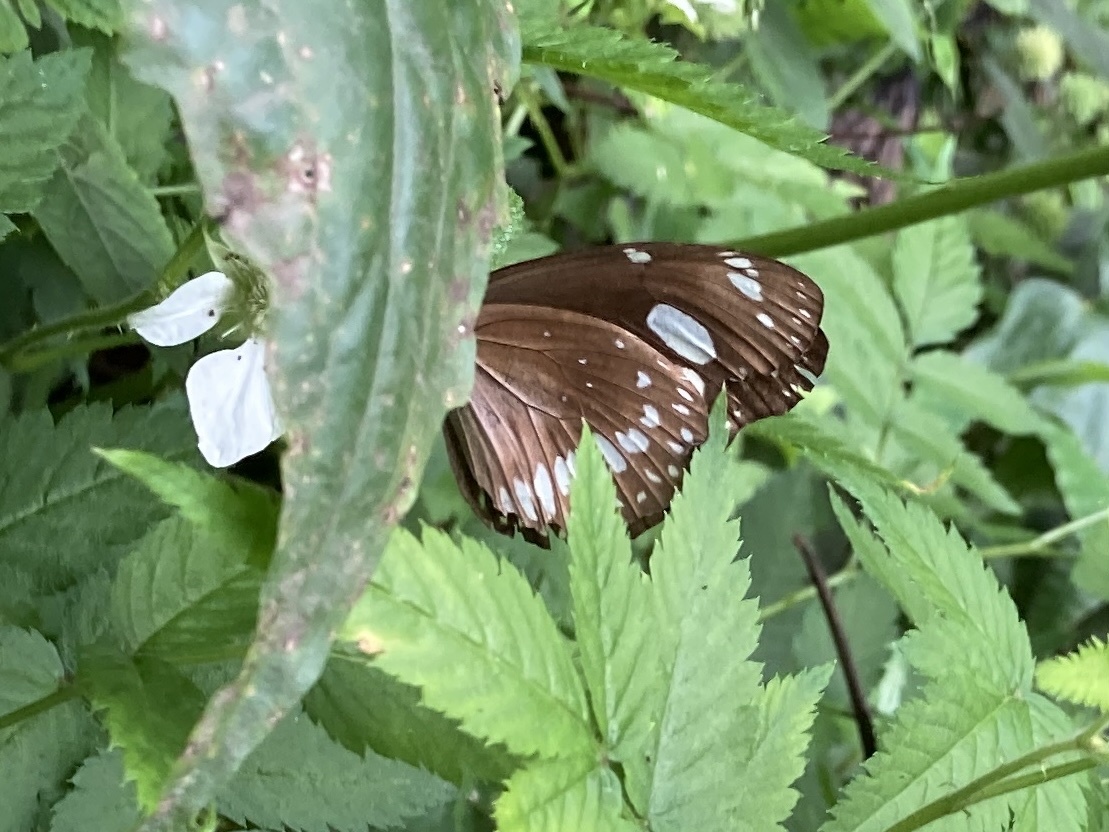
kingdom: Animalia
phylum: Arthropoda
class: Insecta
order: Lepidoptera
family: Nymphalidae
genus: Euploea
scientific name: Euploea lewinii
